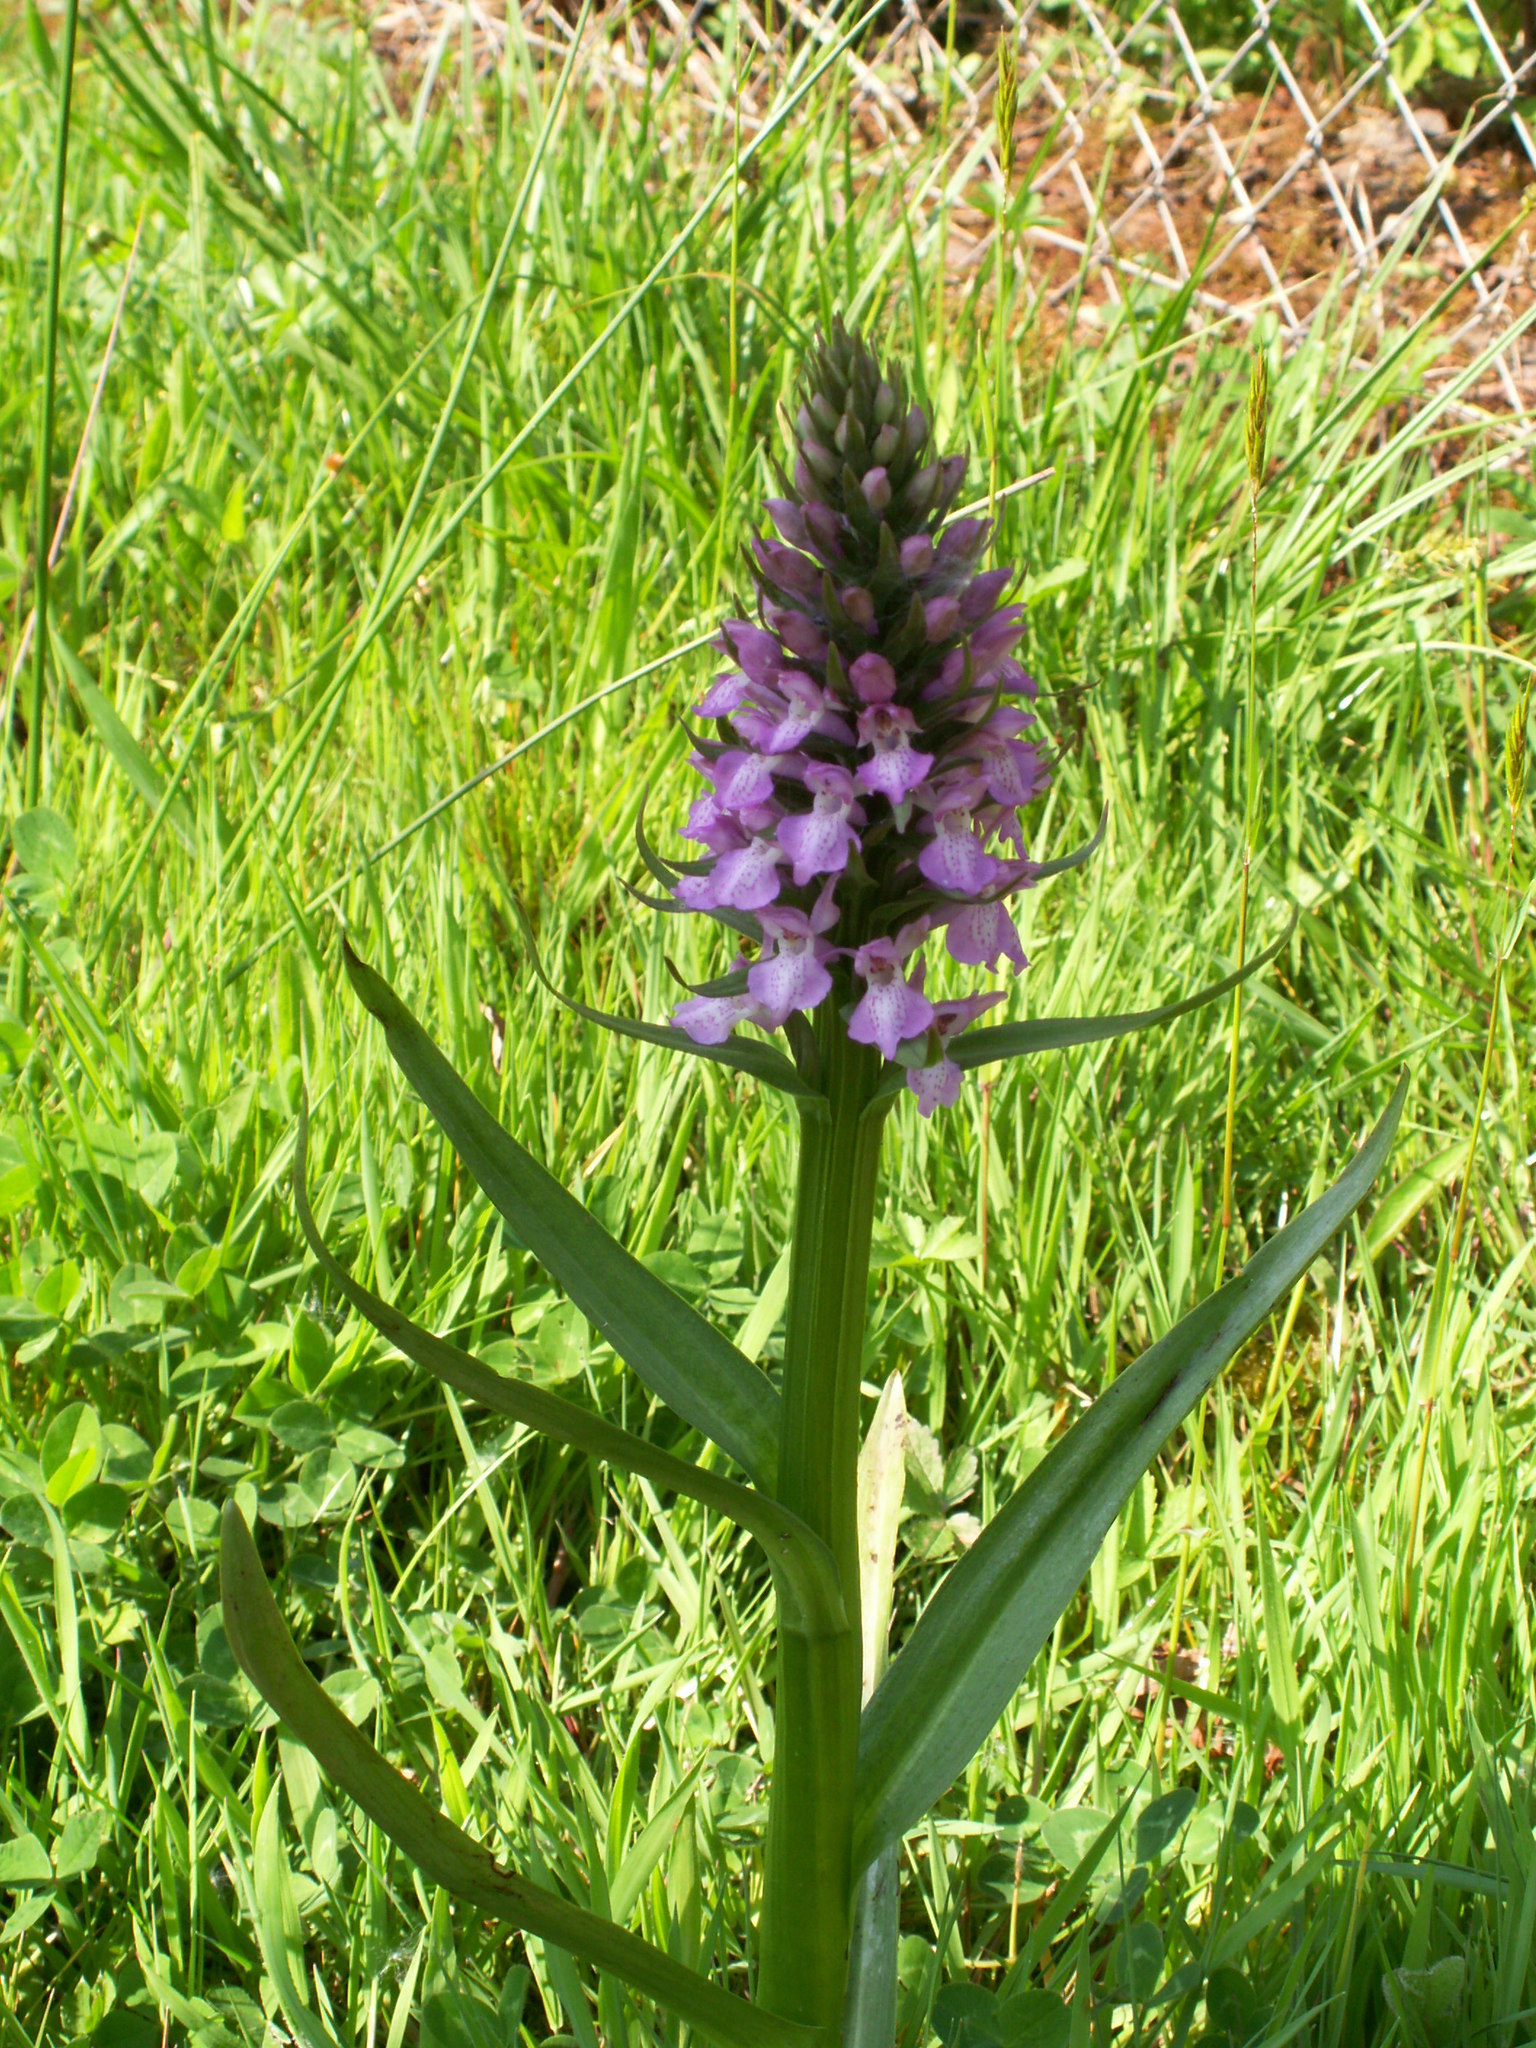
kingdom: Plantae
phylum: Tracheophyta
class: Liliopsida
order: Asparagales
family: Orchidaceae
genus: Dactylorhiza
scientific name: Dactylorhiza majalis
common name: Marsh orchid
